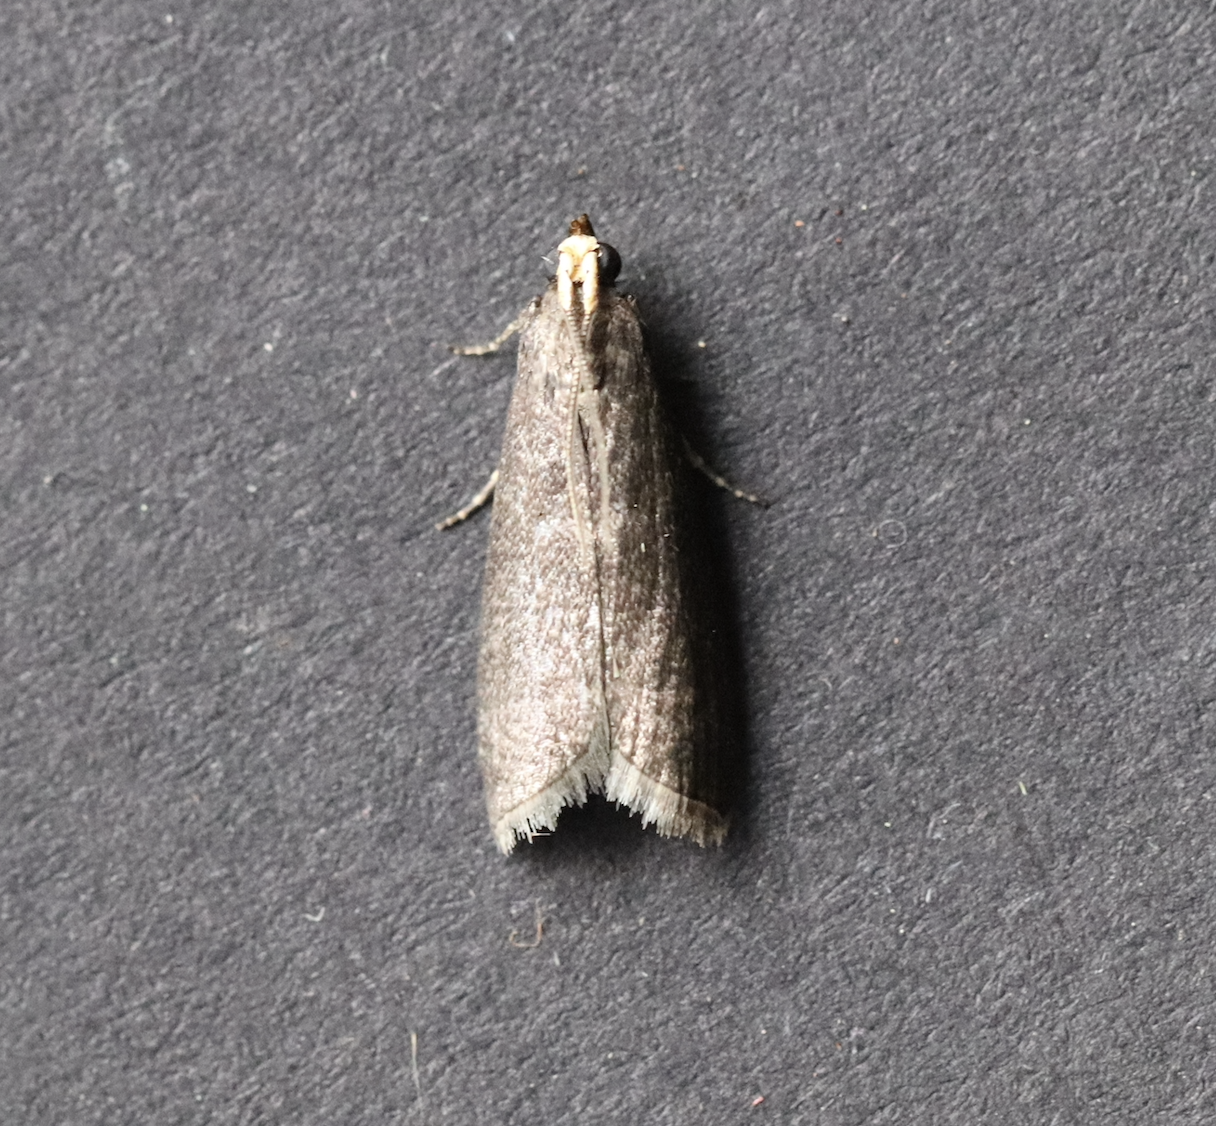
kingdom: Animalia
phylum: Arthropoda
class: Insecta
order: Lepidoptera
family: Pyralidae
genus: Salebriopsis
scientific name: Salebriopsis albicilla
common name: Lime knot-horn
